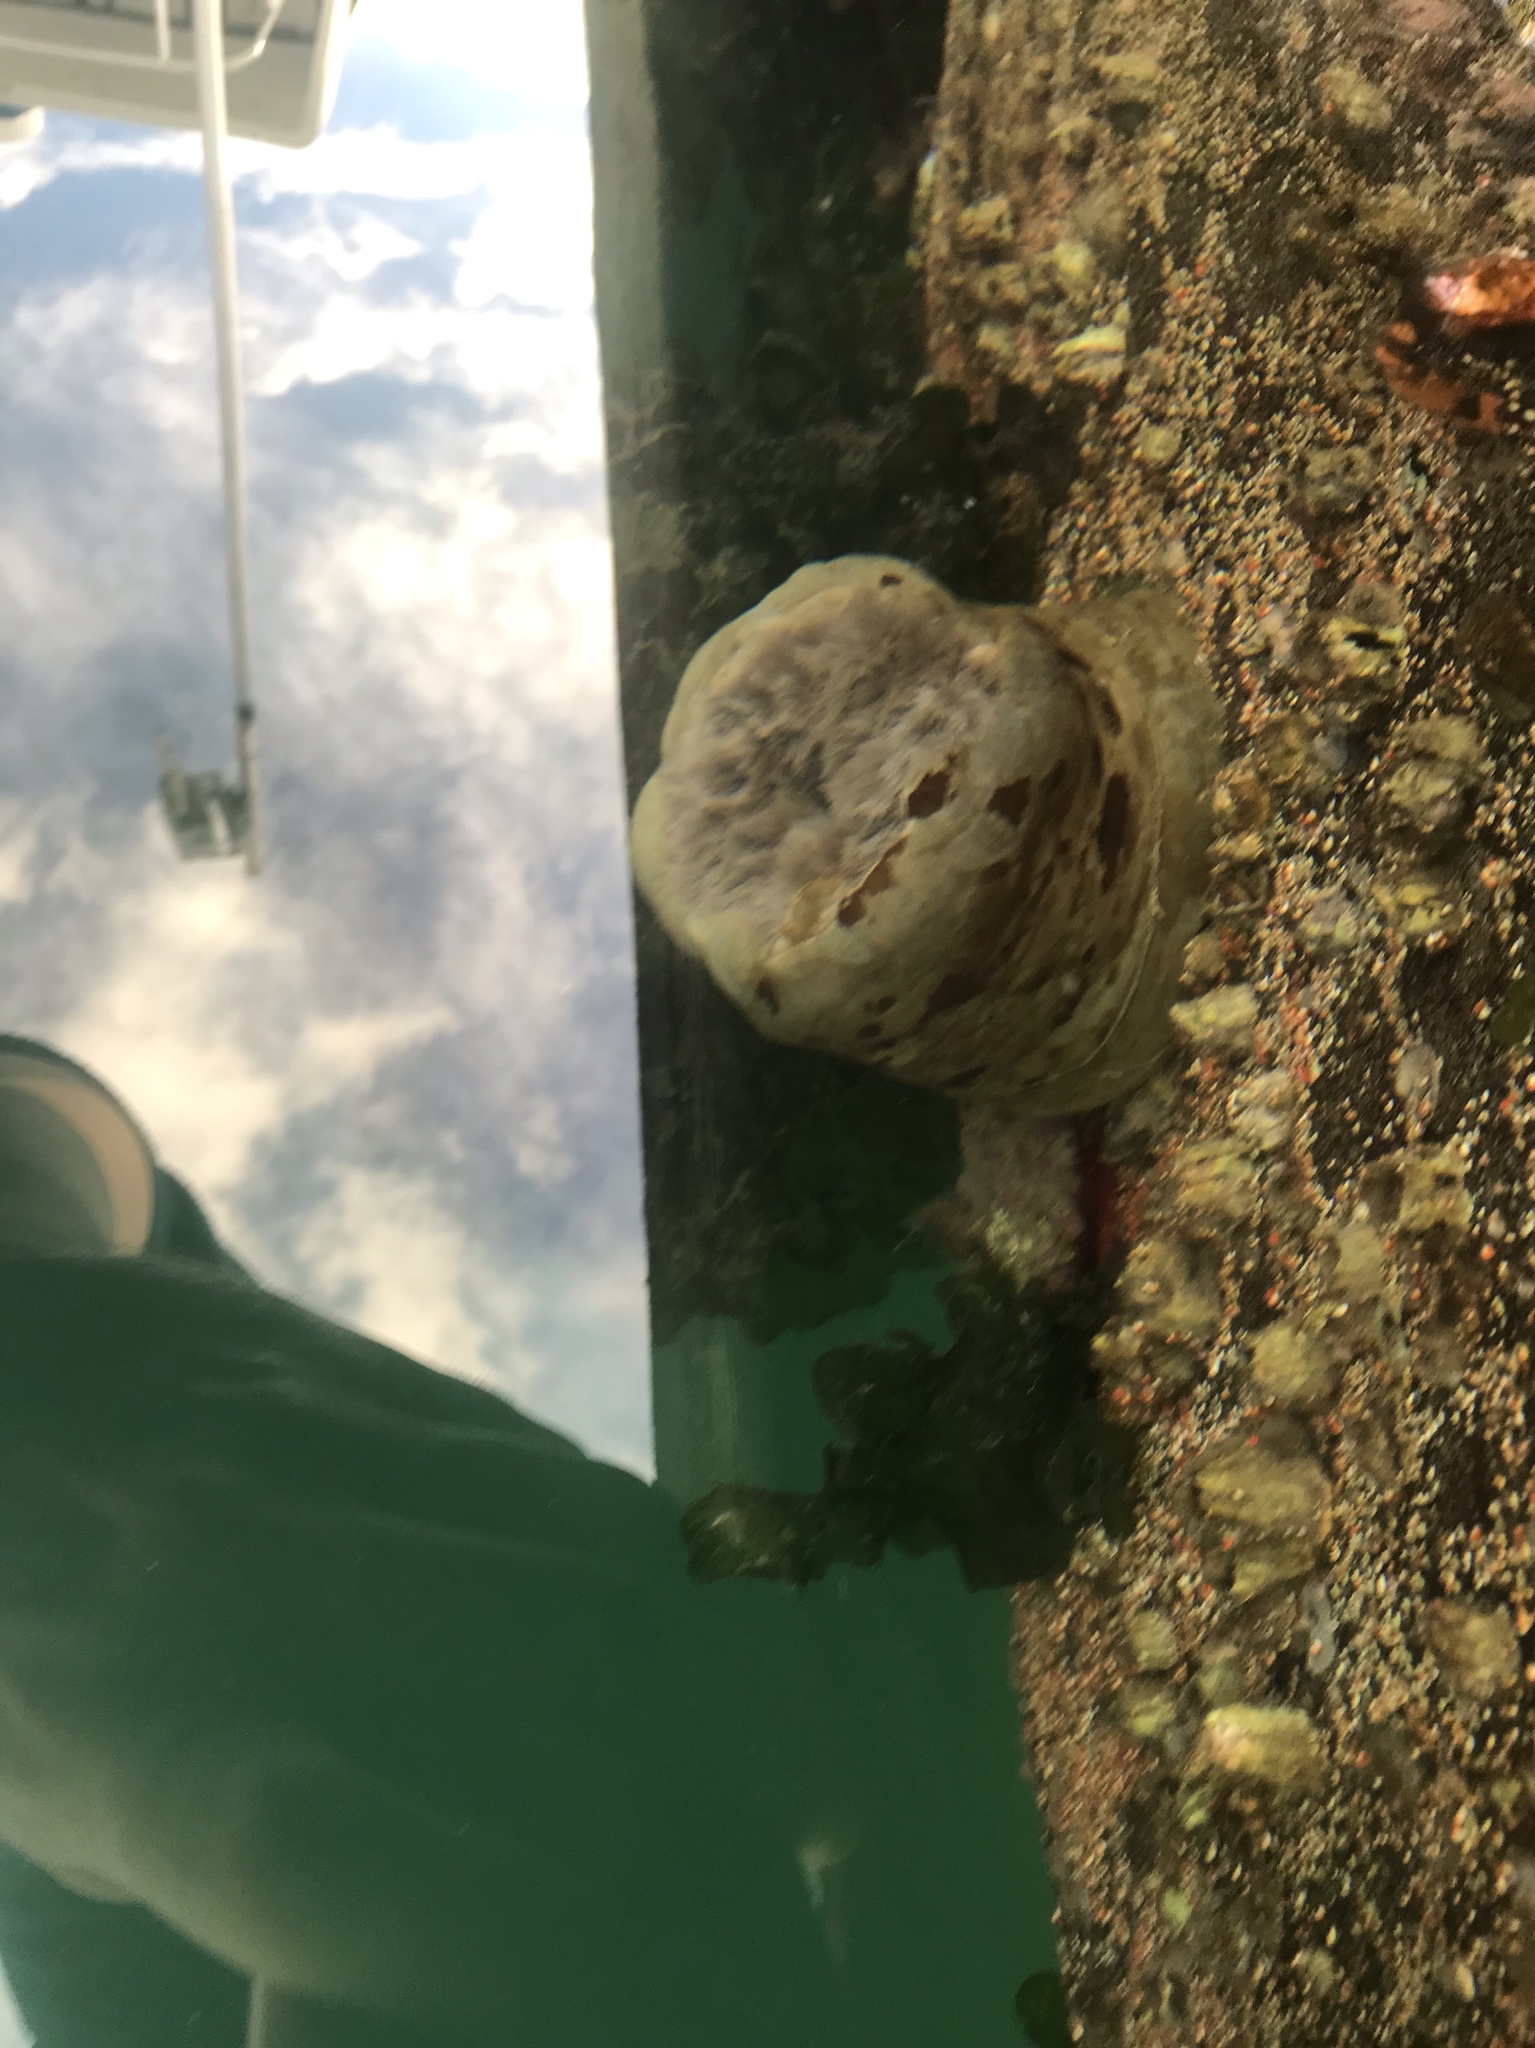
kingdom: Animalia
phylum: Cnidaria
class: Anthozoa
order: Actiniaria
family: Metridiidae
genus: Metridium
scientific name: Metridium farcimen
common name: Gigantic anemone
